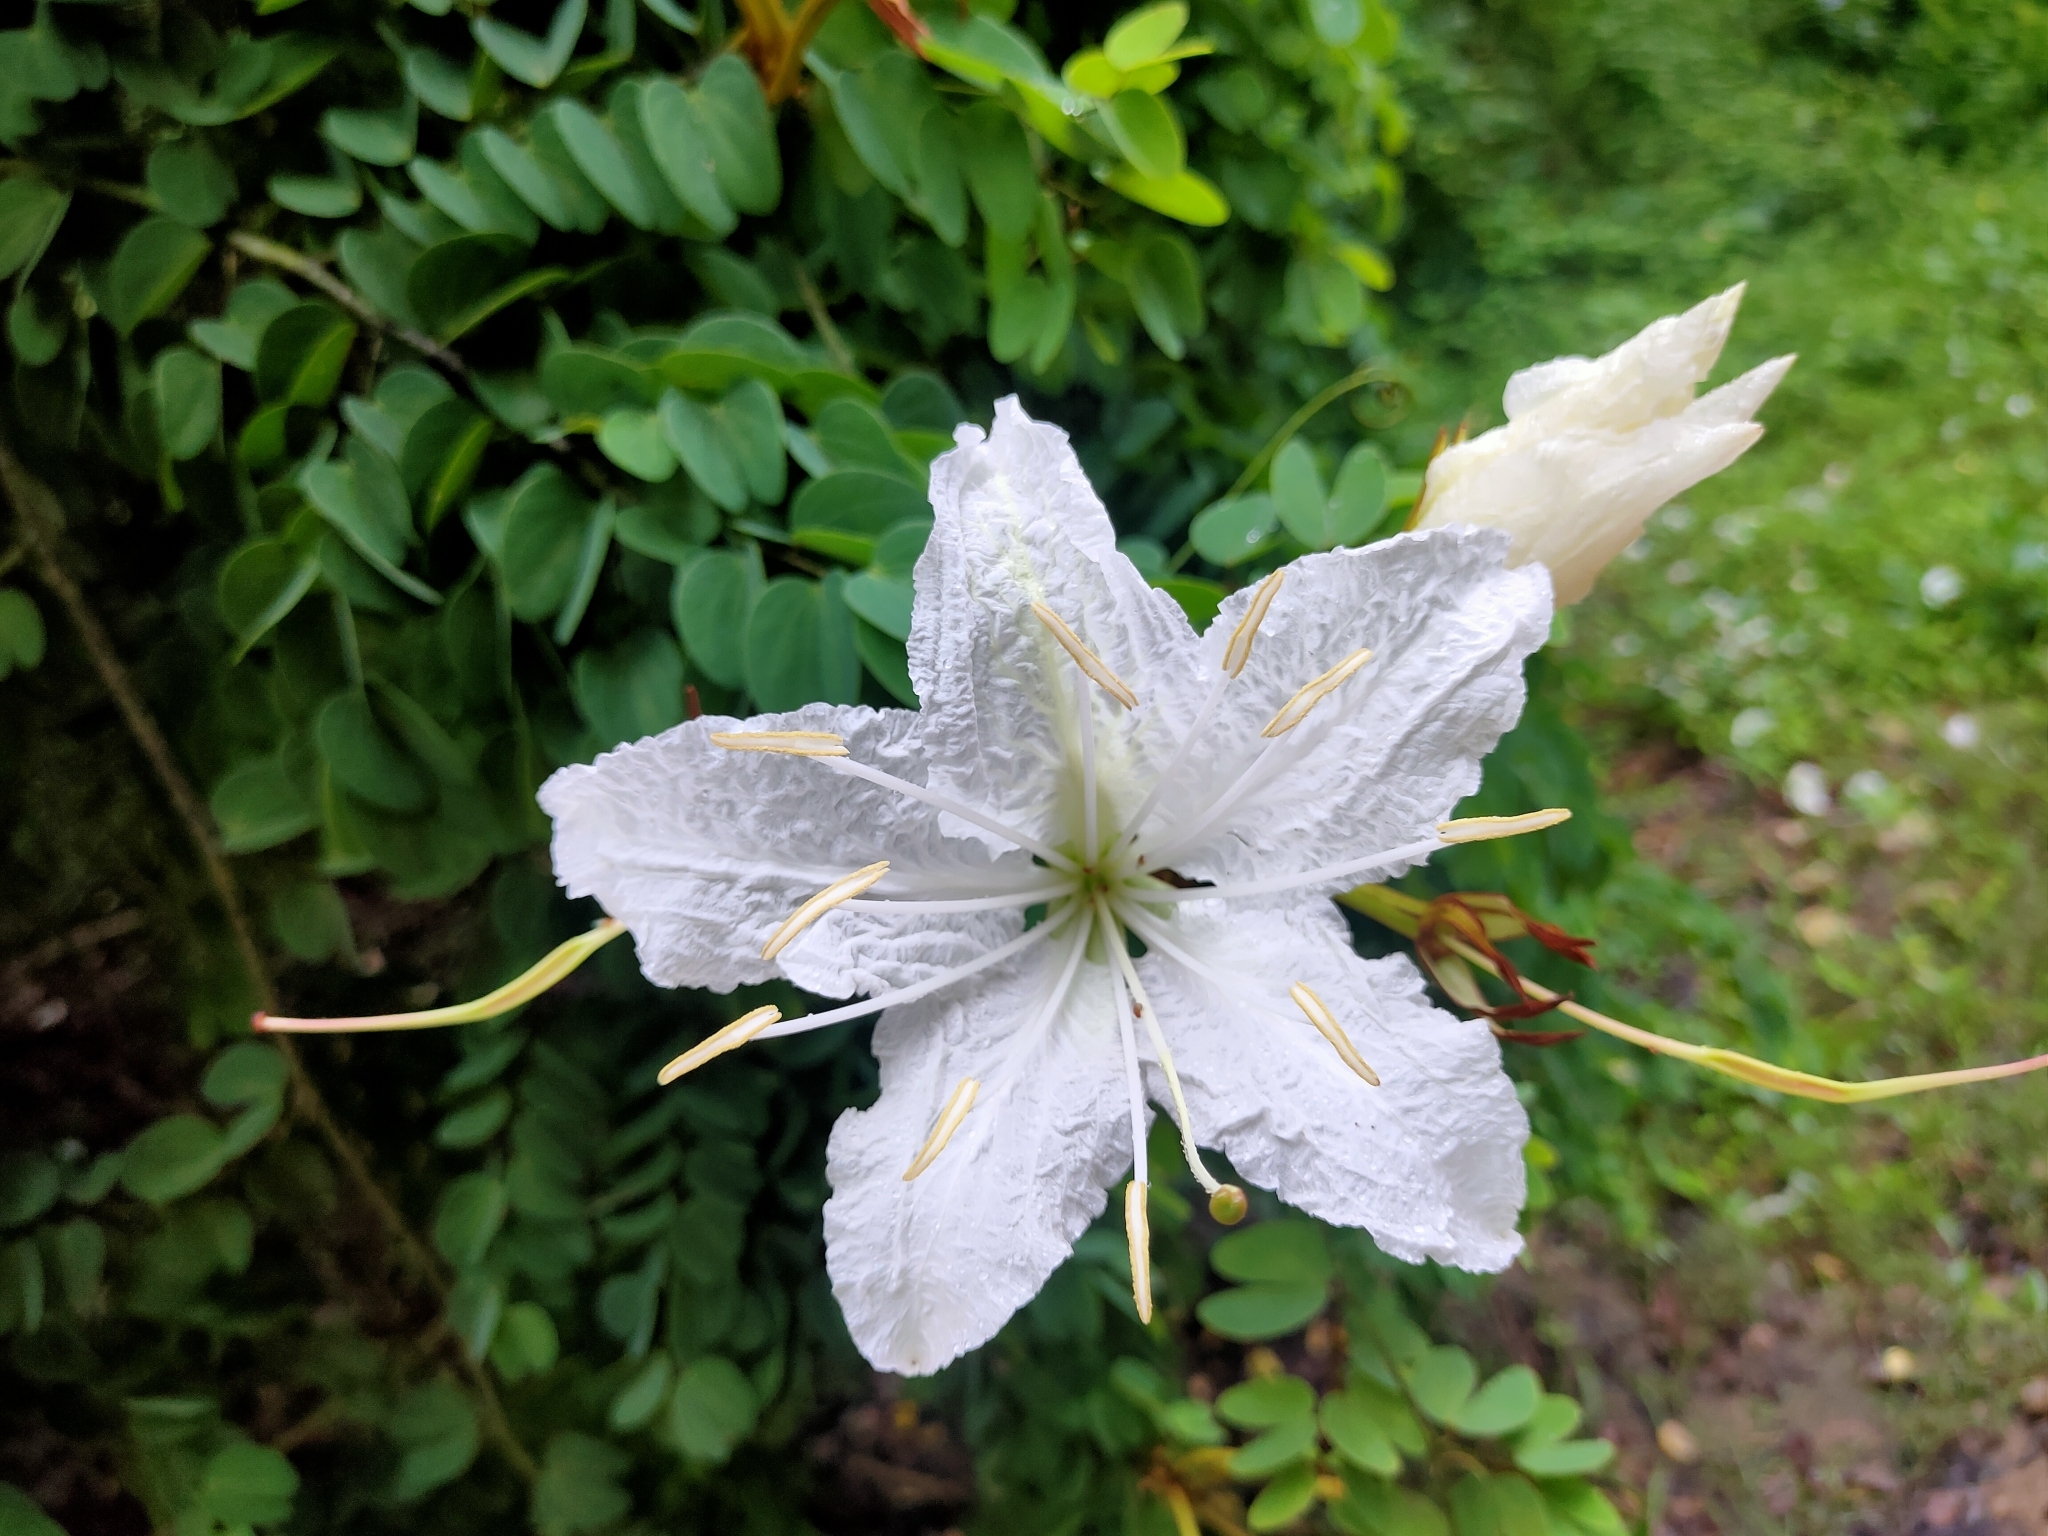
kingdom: Plantae
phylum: Tracheophyta
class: Magnoliopsida
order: Fabales
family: Fabaceae
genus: Lysiphyllum
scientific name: Lysiphyllum winitii
